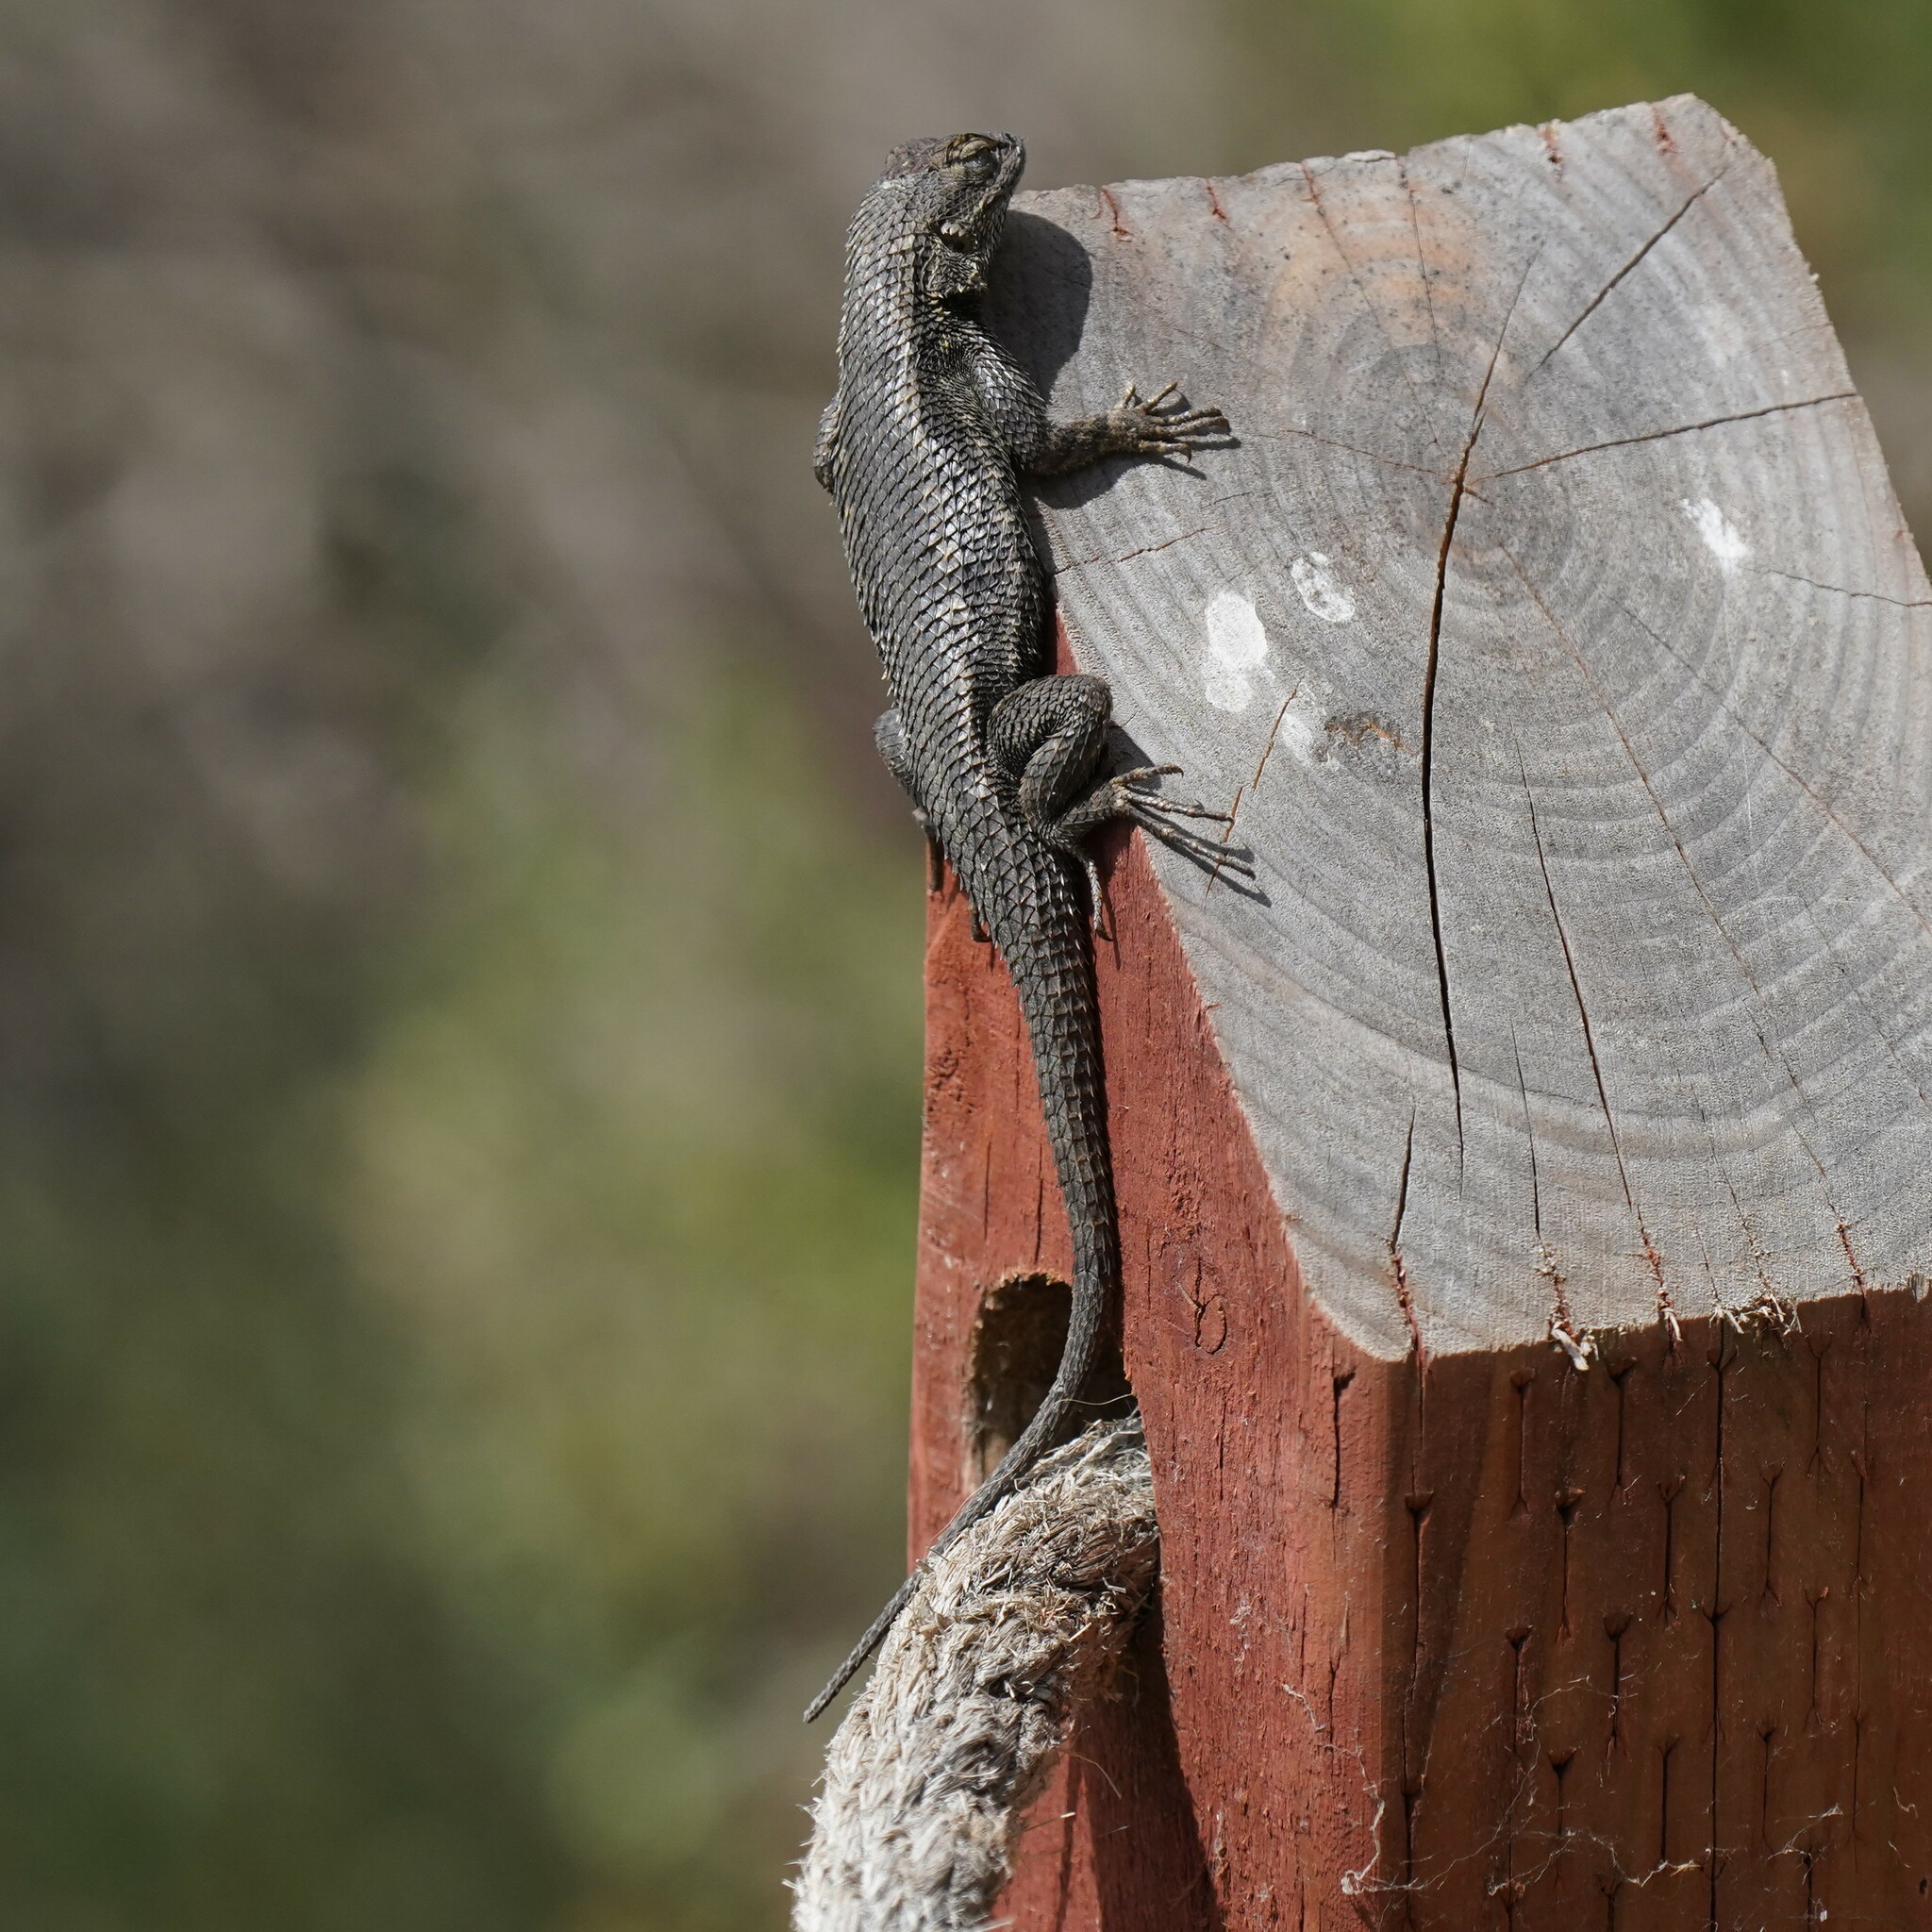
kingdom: Animalia
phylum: Chordata
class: Squamata
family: Phrynosomatidae
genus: Sceloporus
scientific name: Sceloporus occidentalis
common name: Western fence lizard
